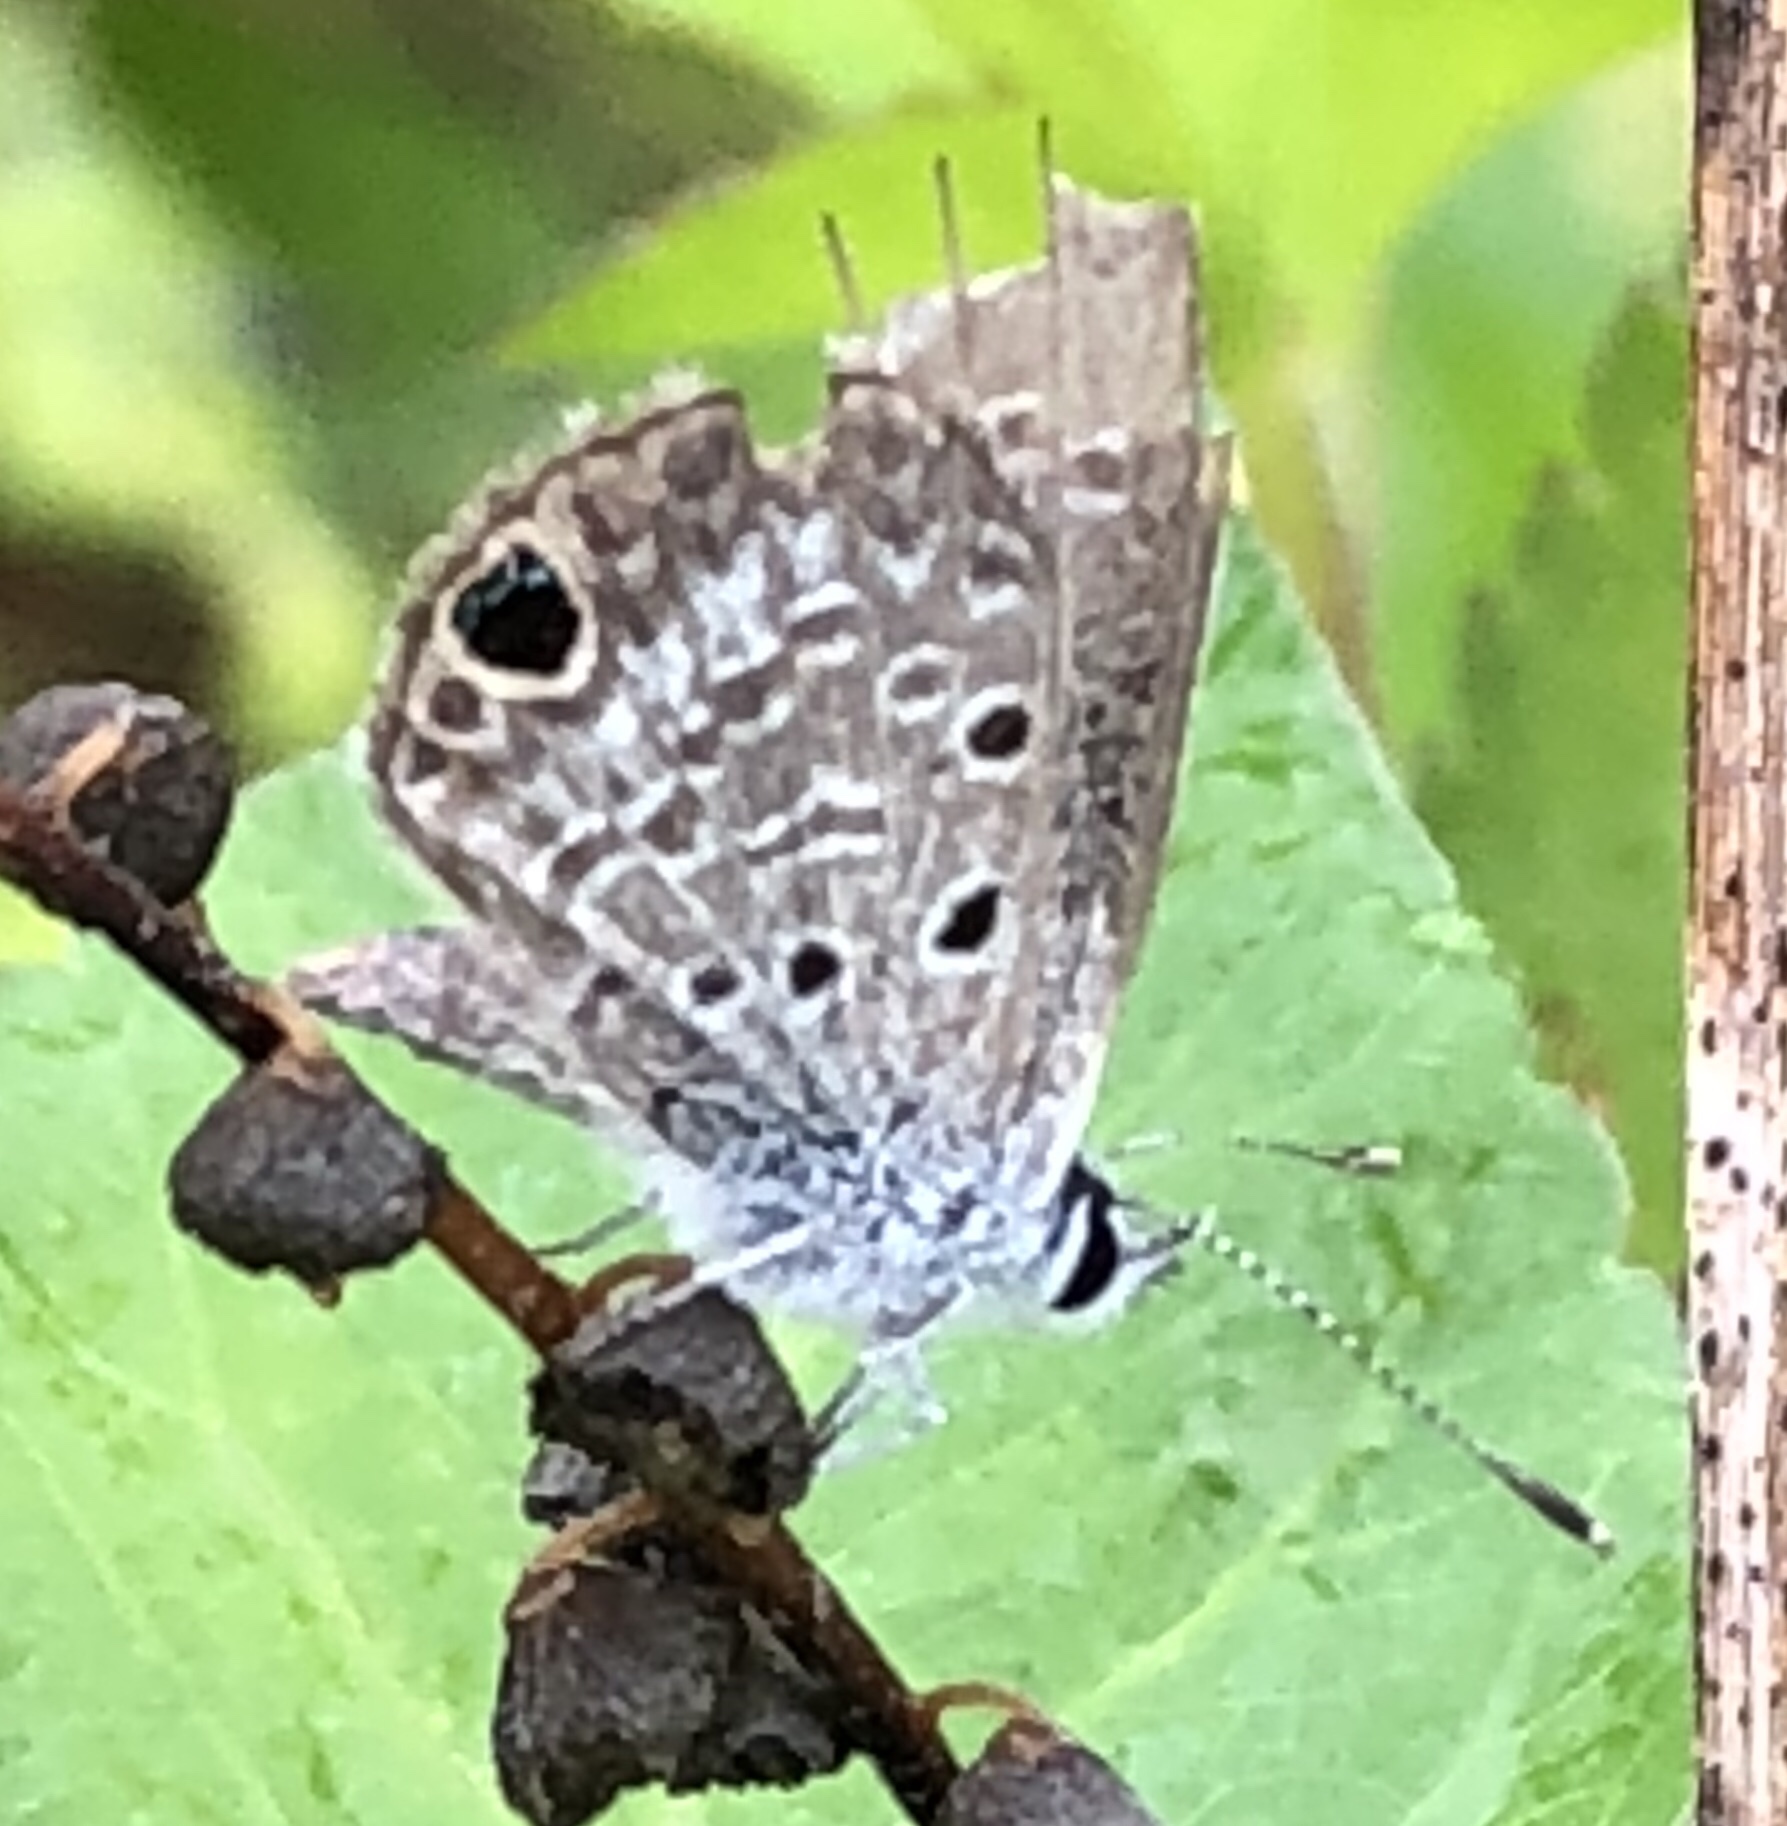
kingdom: Animalia
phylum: Arthropoda
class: Insecta
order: Lepidoptera
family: Lycaenidae
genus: Hemiargus
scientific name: Hemiargus ceraunus
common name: Ceraunus blue
